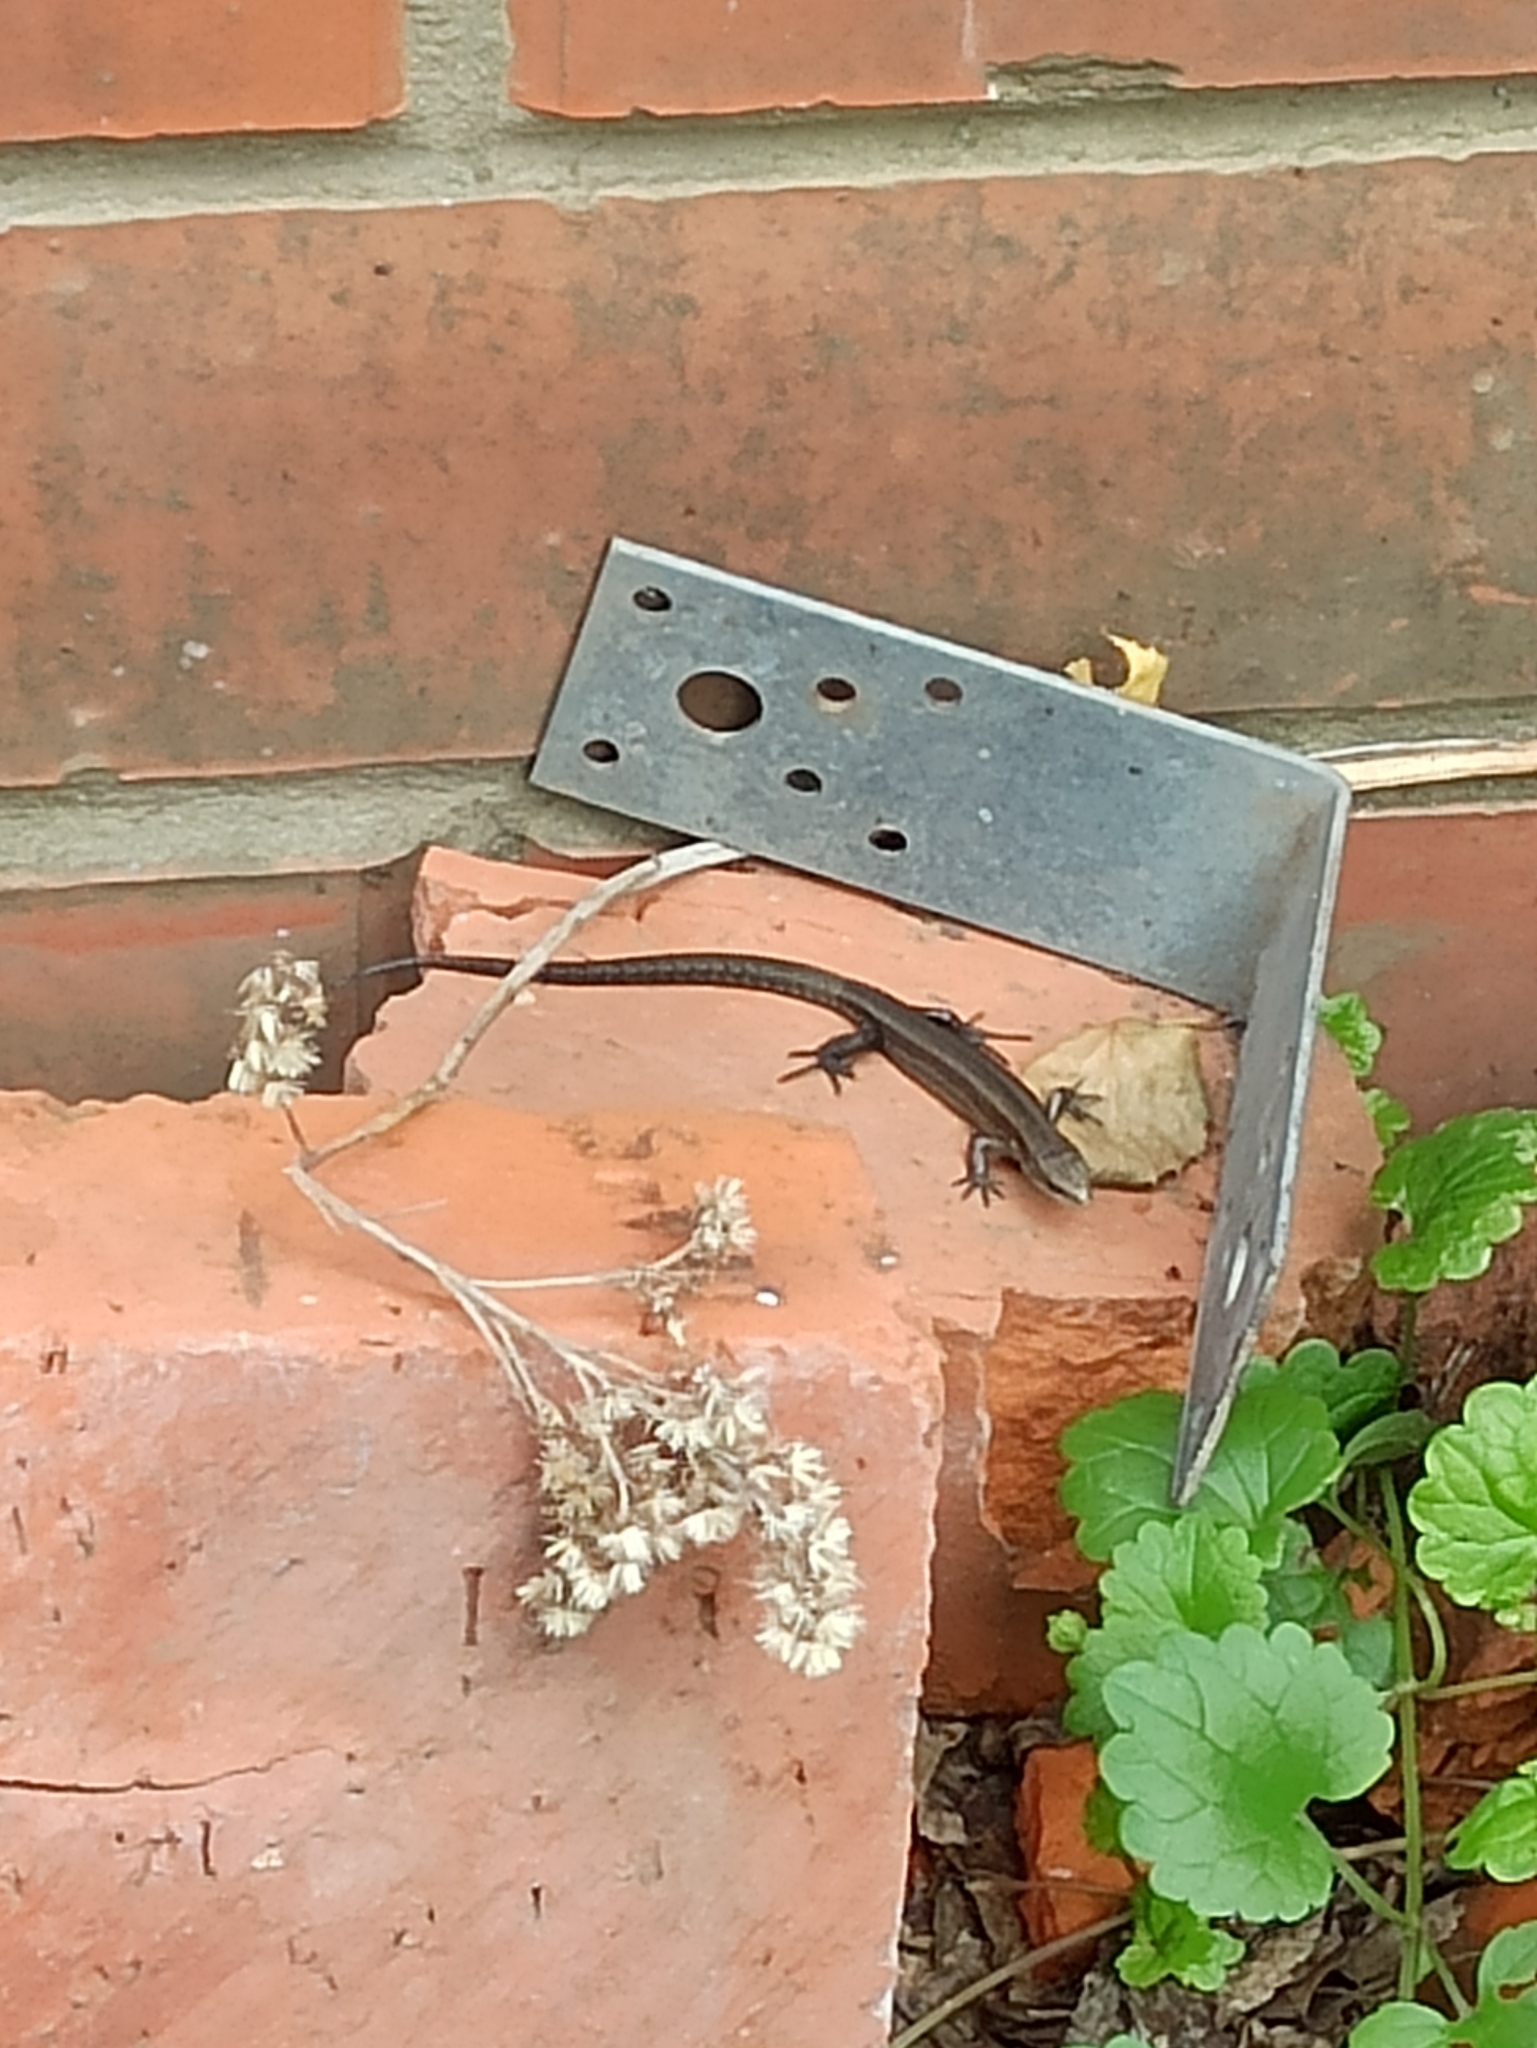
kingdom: Animalia
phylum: Chordata
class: Squamata
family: Lacertidae
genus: Zootoca
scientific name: Zootoca vivipara
